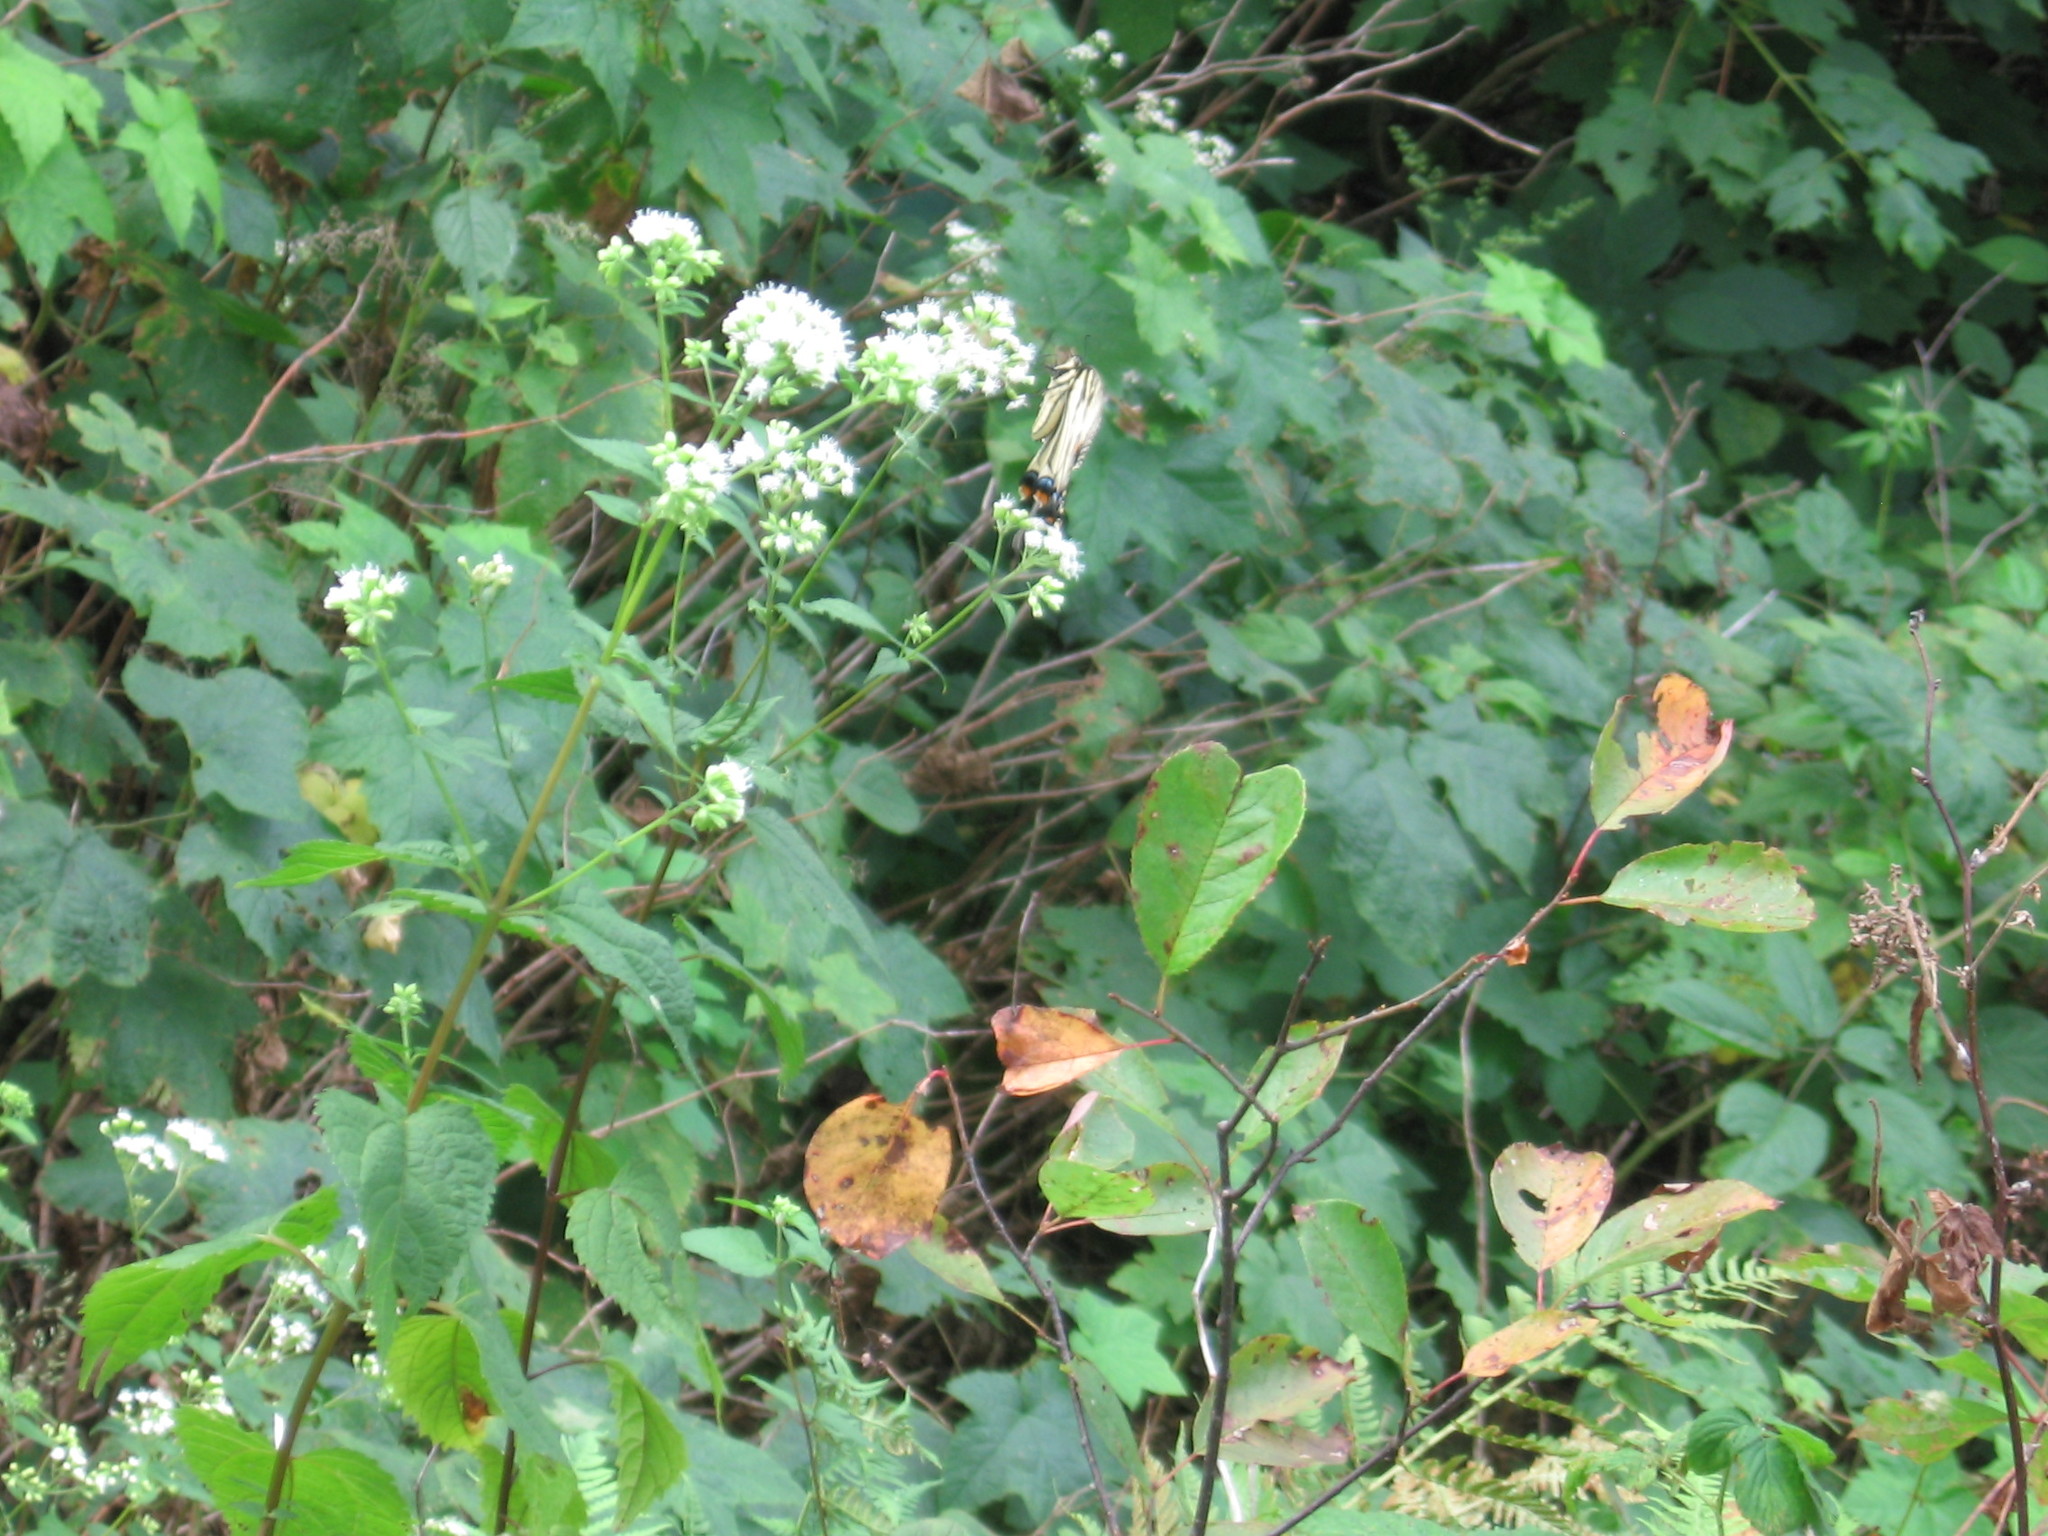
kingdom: Animalia
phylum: Arthropoda
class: Insecta
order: Lepidoptera
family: Papilionidae
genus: Papilio
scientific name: Papilio glaucus
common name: Tiger swallowtail
